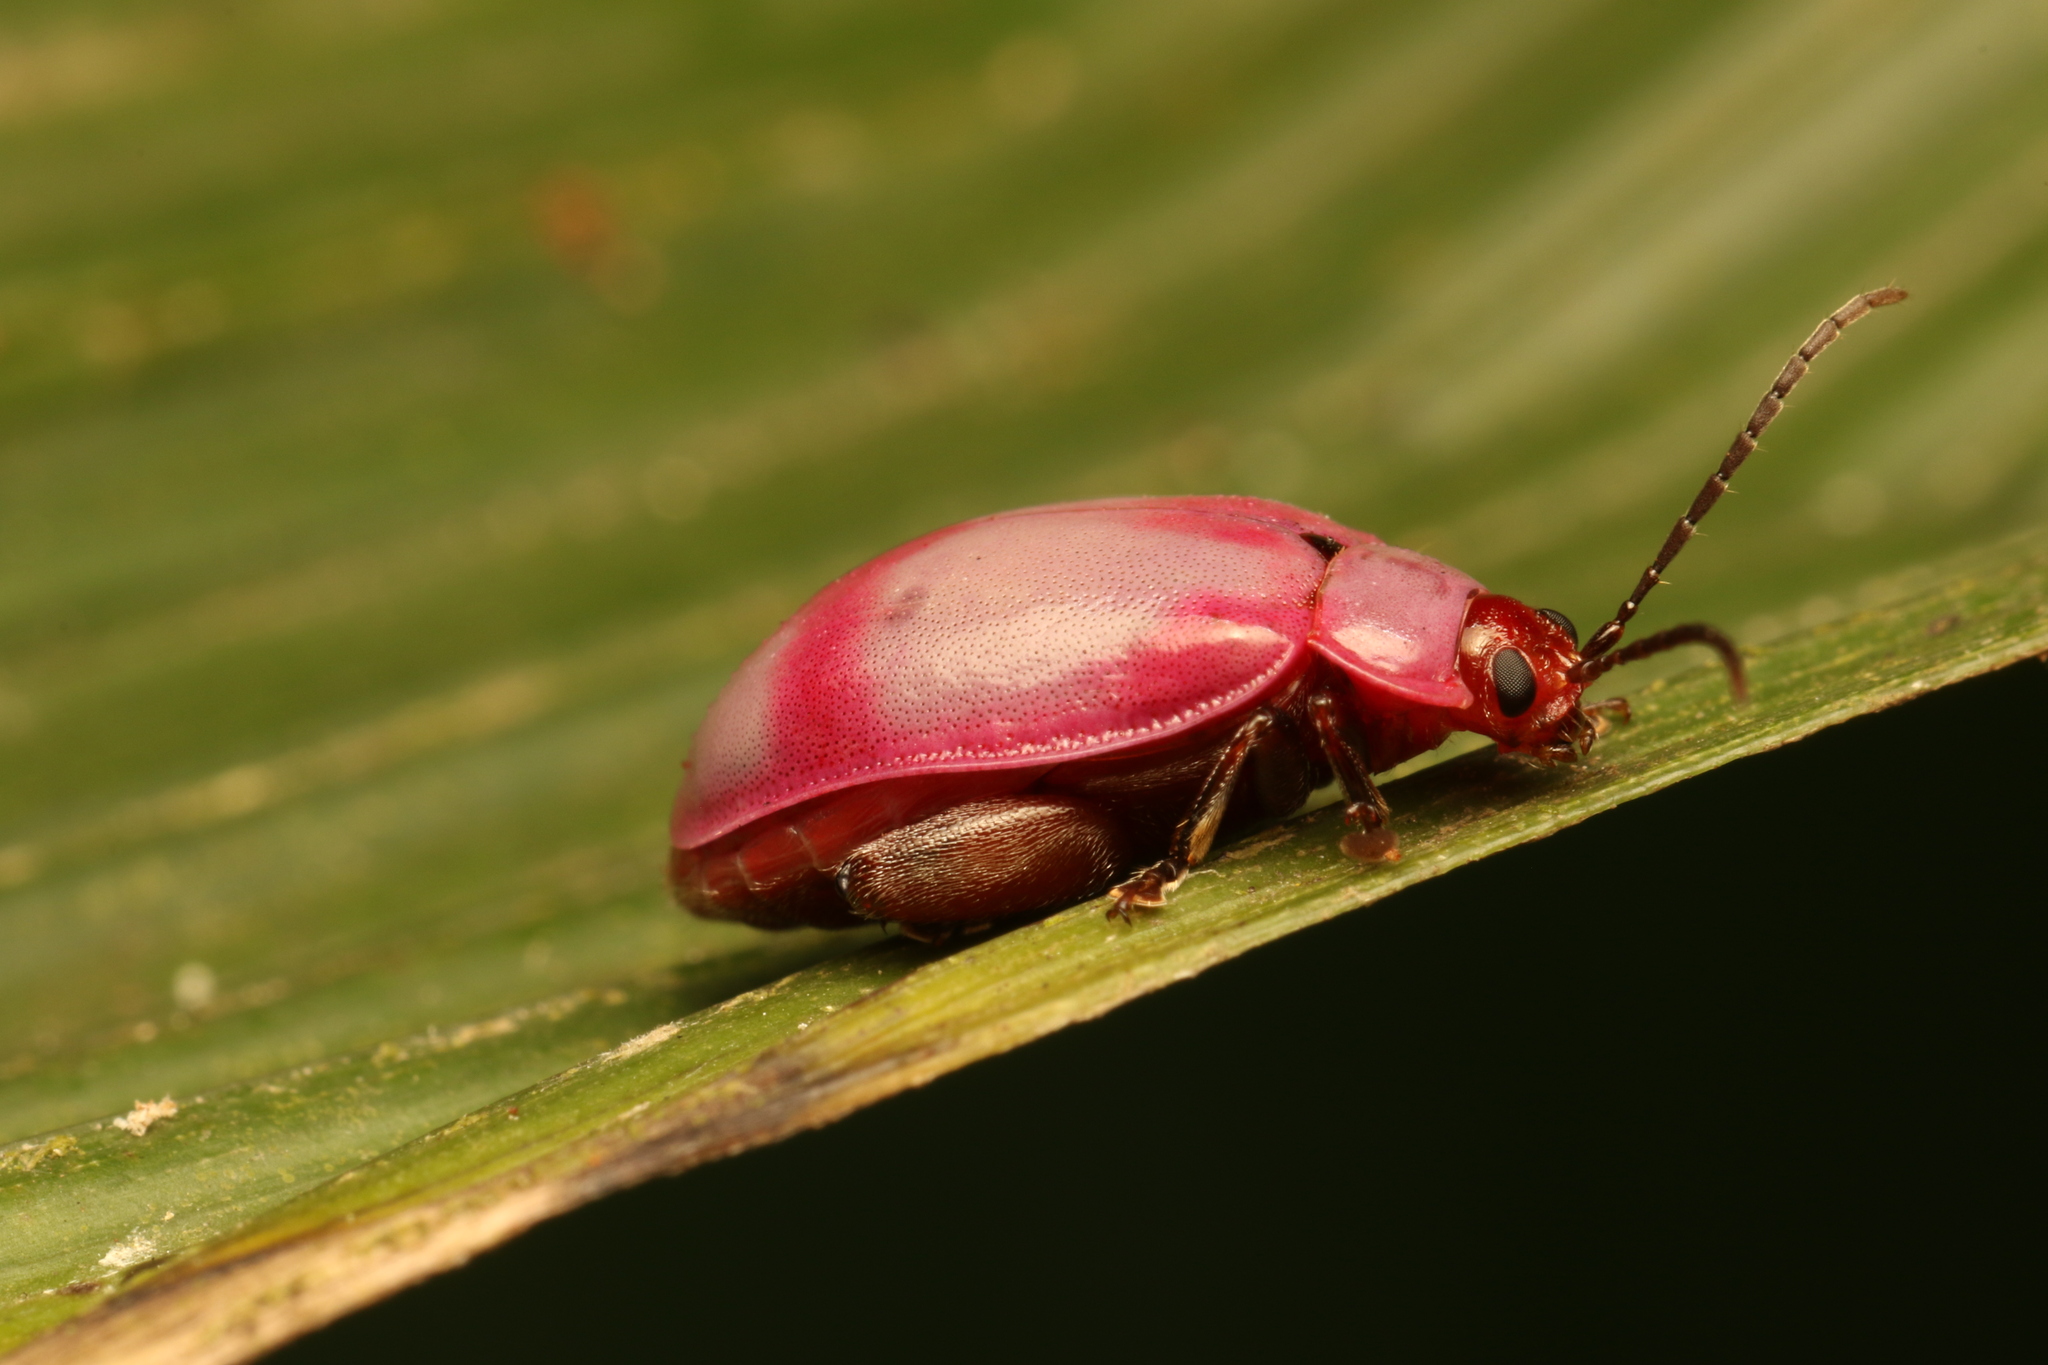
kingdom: Animalia
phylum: Arthropoda
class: Insecta
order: Coleoptera
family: Chrysomelidae
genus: Wanderbiltiana
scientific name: Wanderbiltiana
